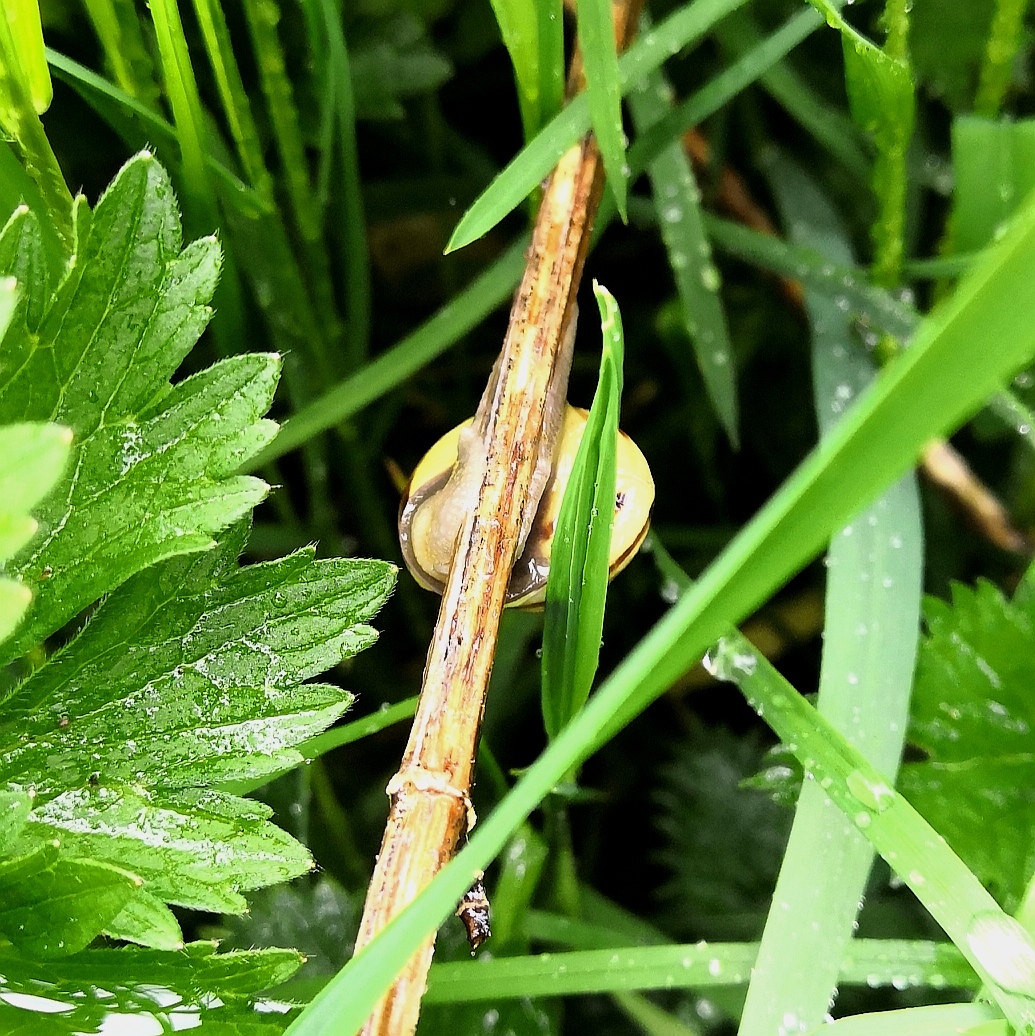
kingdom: Animalia
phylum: Mollusca
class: Gastropoda
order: Stylommatophora
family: Helicidae
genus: Cepaea
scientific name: Cepaea nemoralis
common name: Grovesnail
